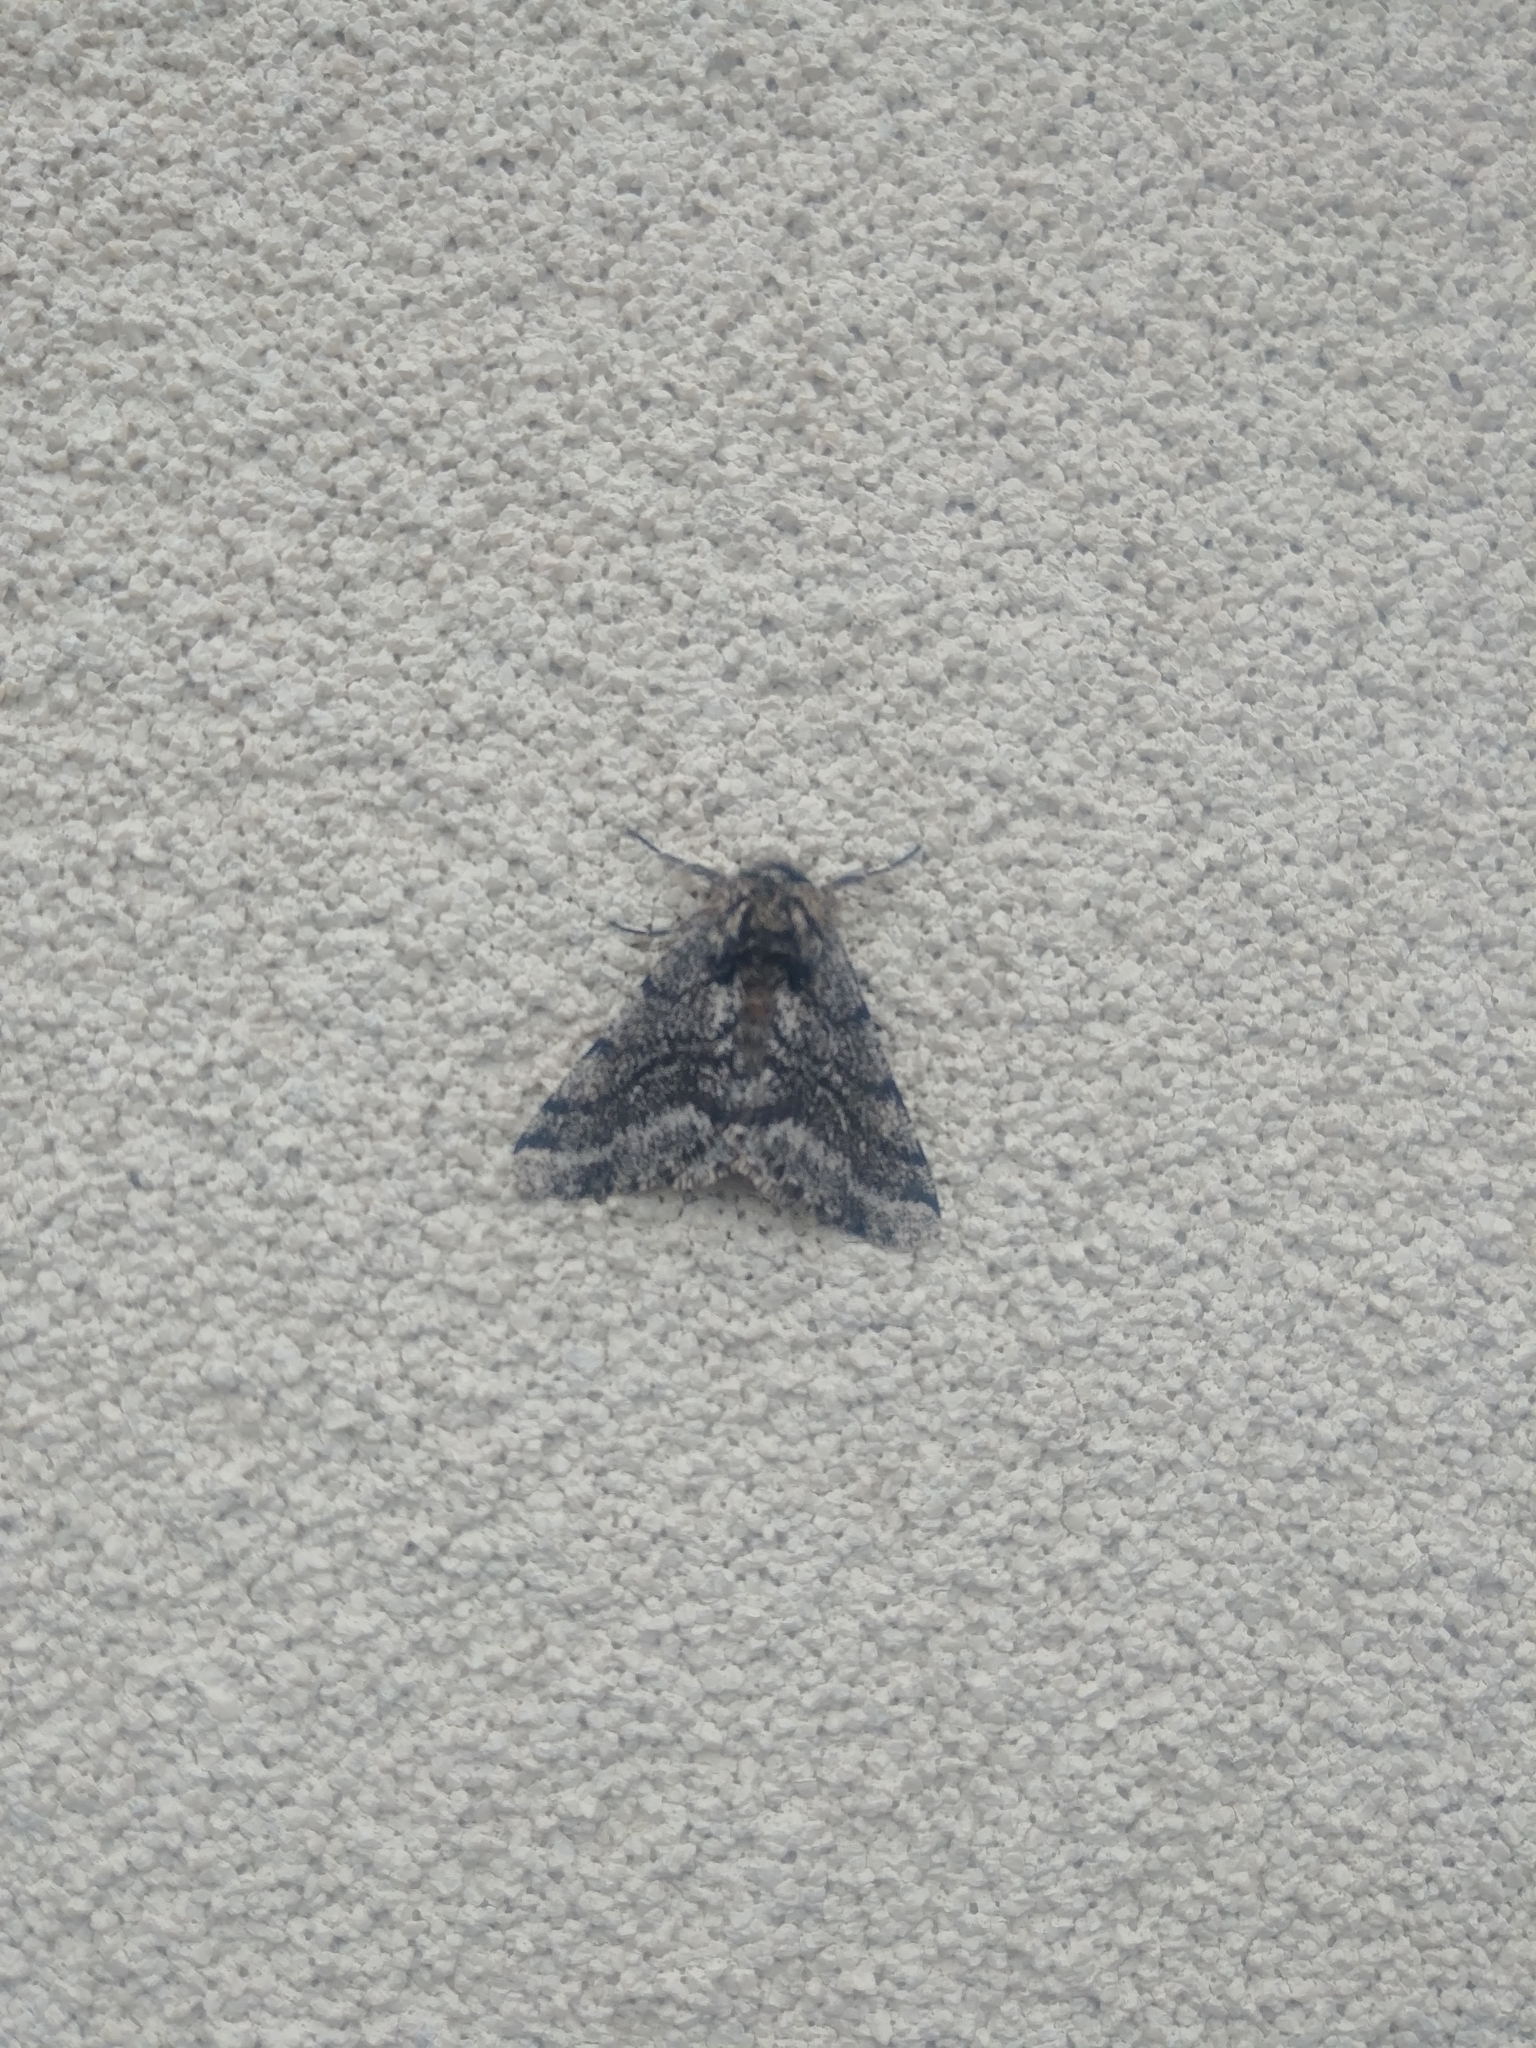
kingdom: Animalia
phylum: Arthropoda
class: Insecta
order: Lepidoptera
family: Geometridae
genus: Lycia
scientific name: Lycia ursaria
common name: Stout spanworm
